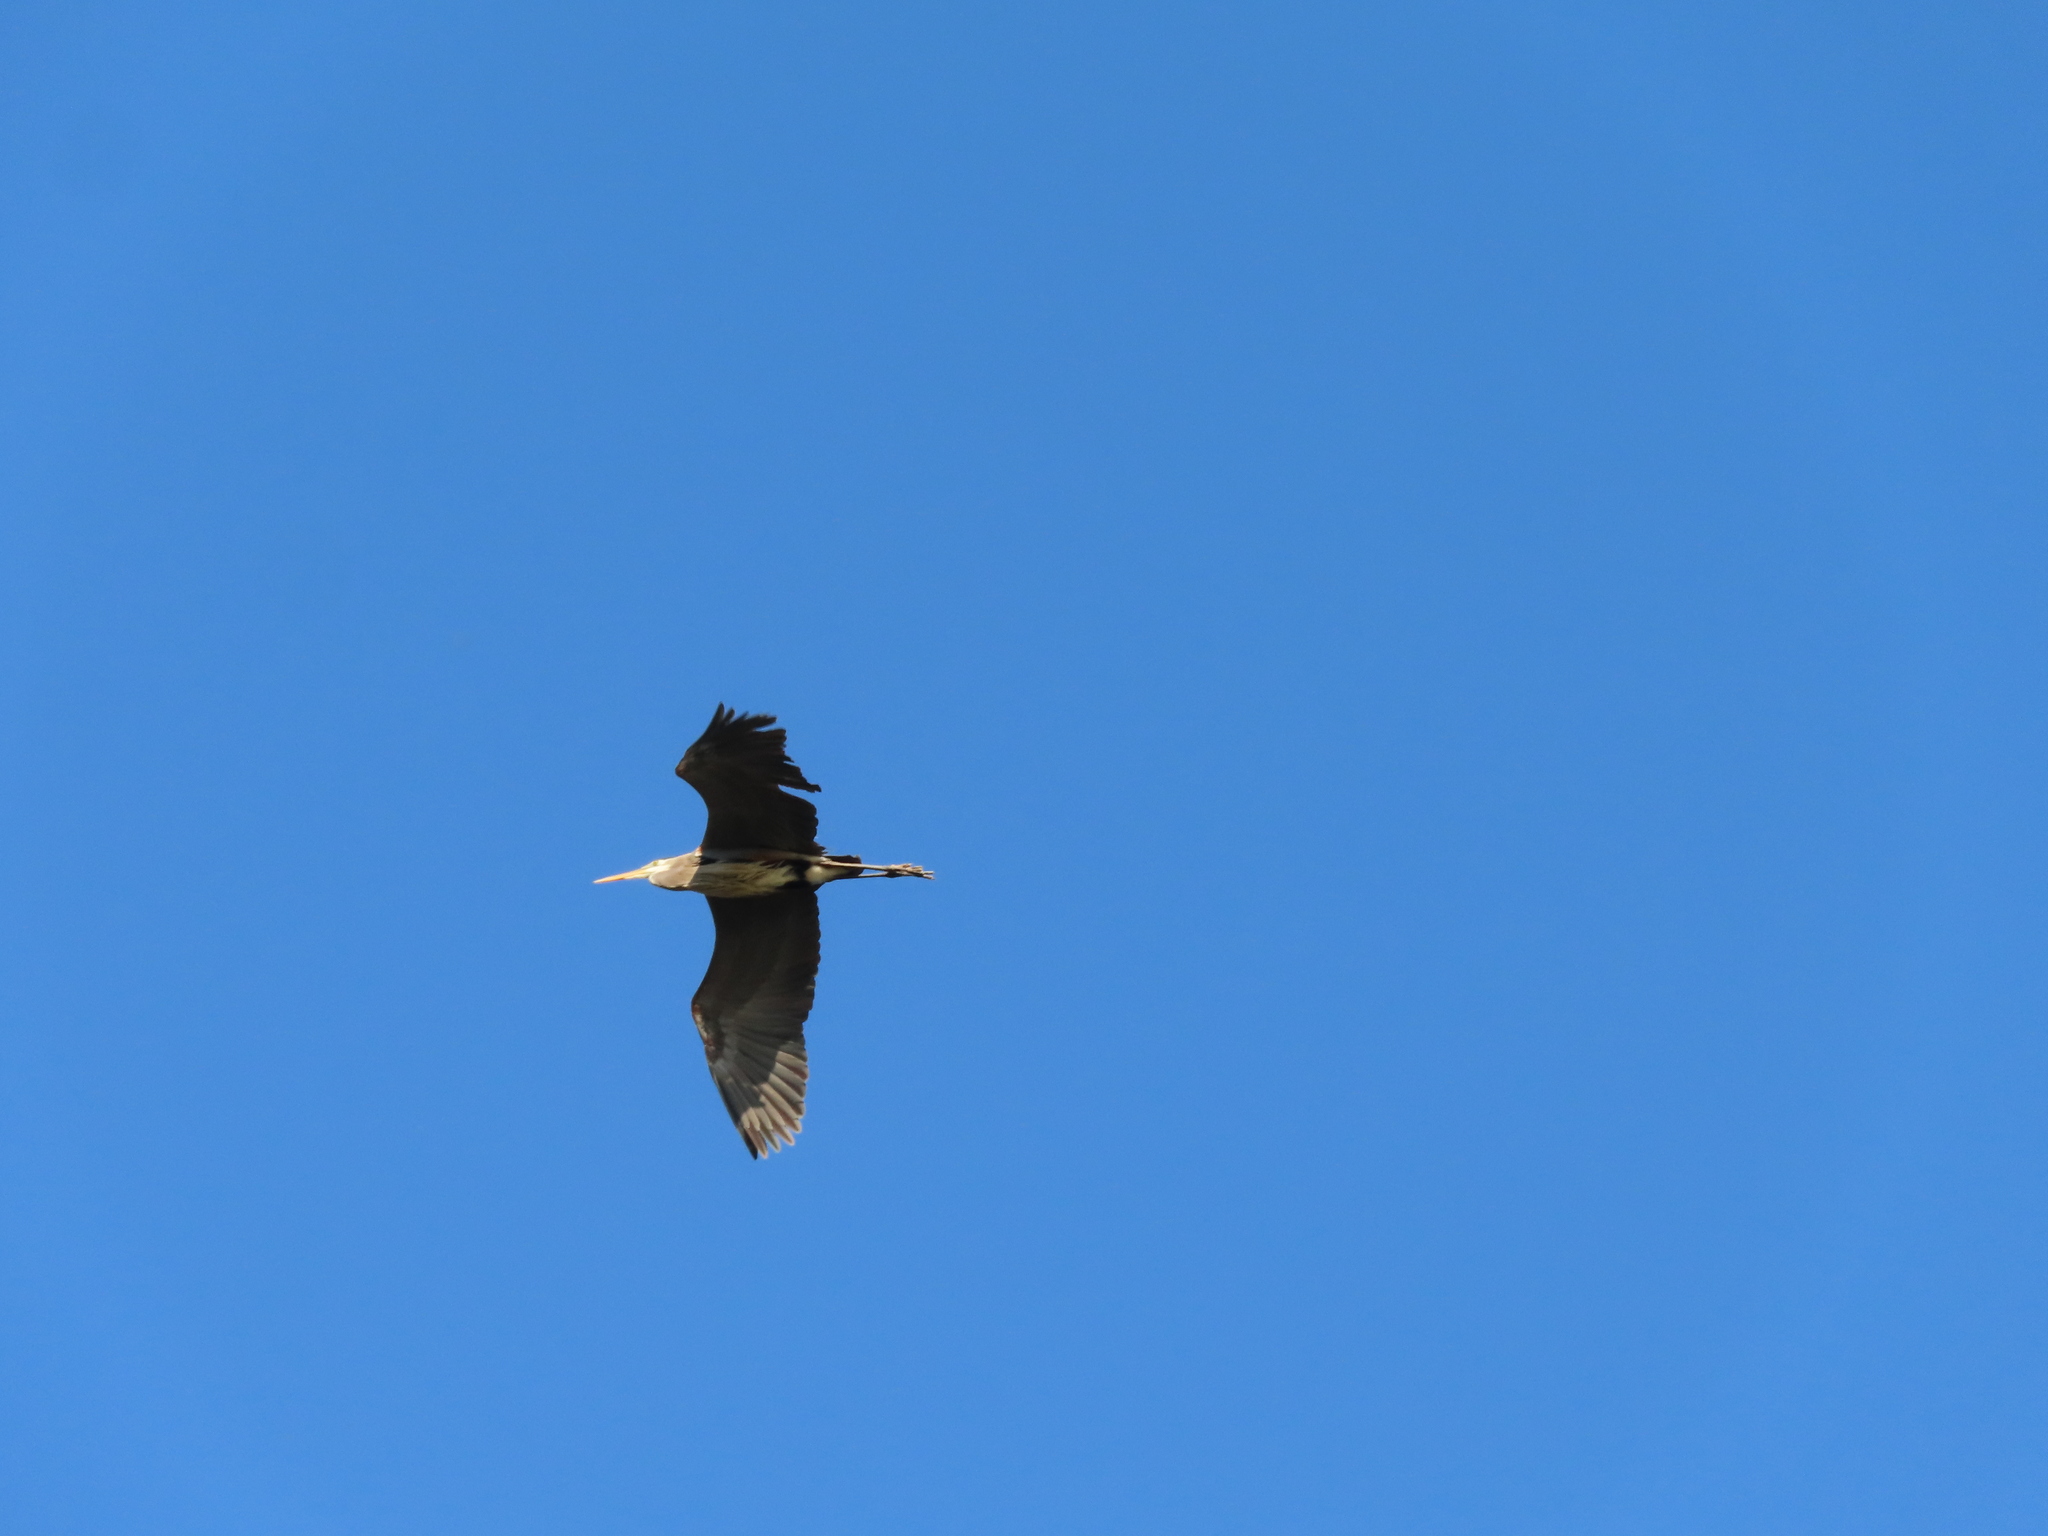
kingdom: Animalia
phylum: Chordata
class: Aves
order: Pelecaniformes
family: Ardeidae
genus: Ardea
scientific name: Ardea herodias
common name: Great blue heron
